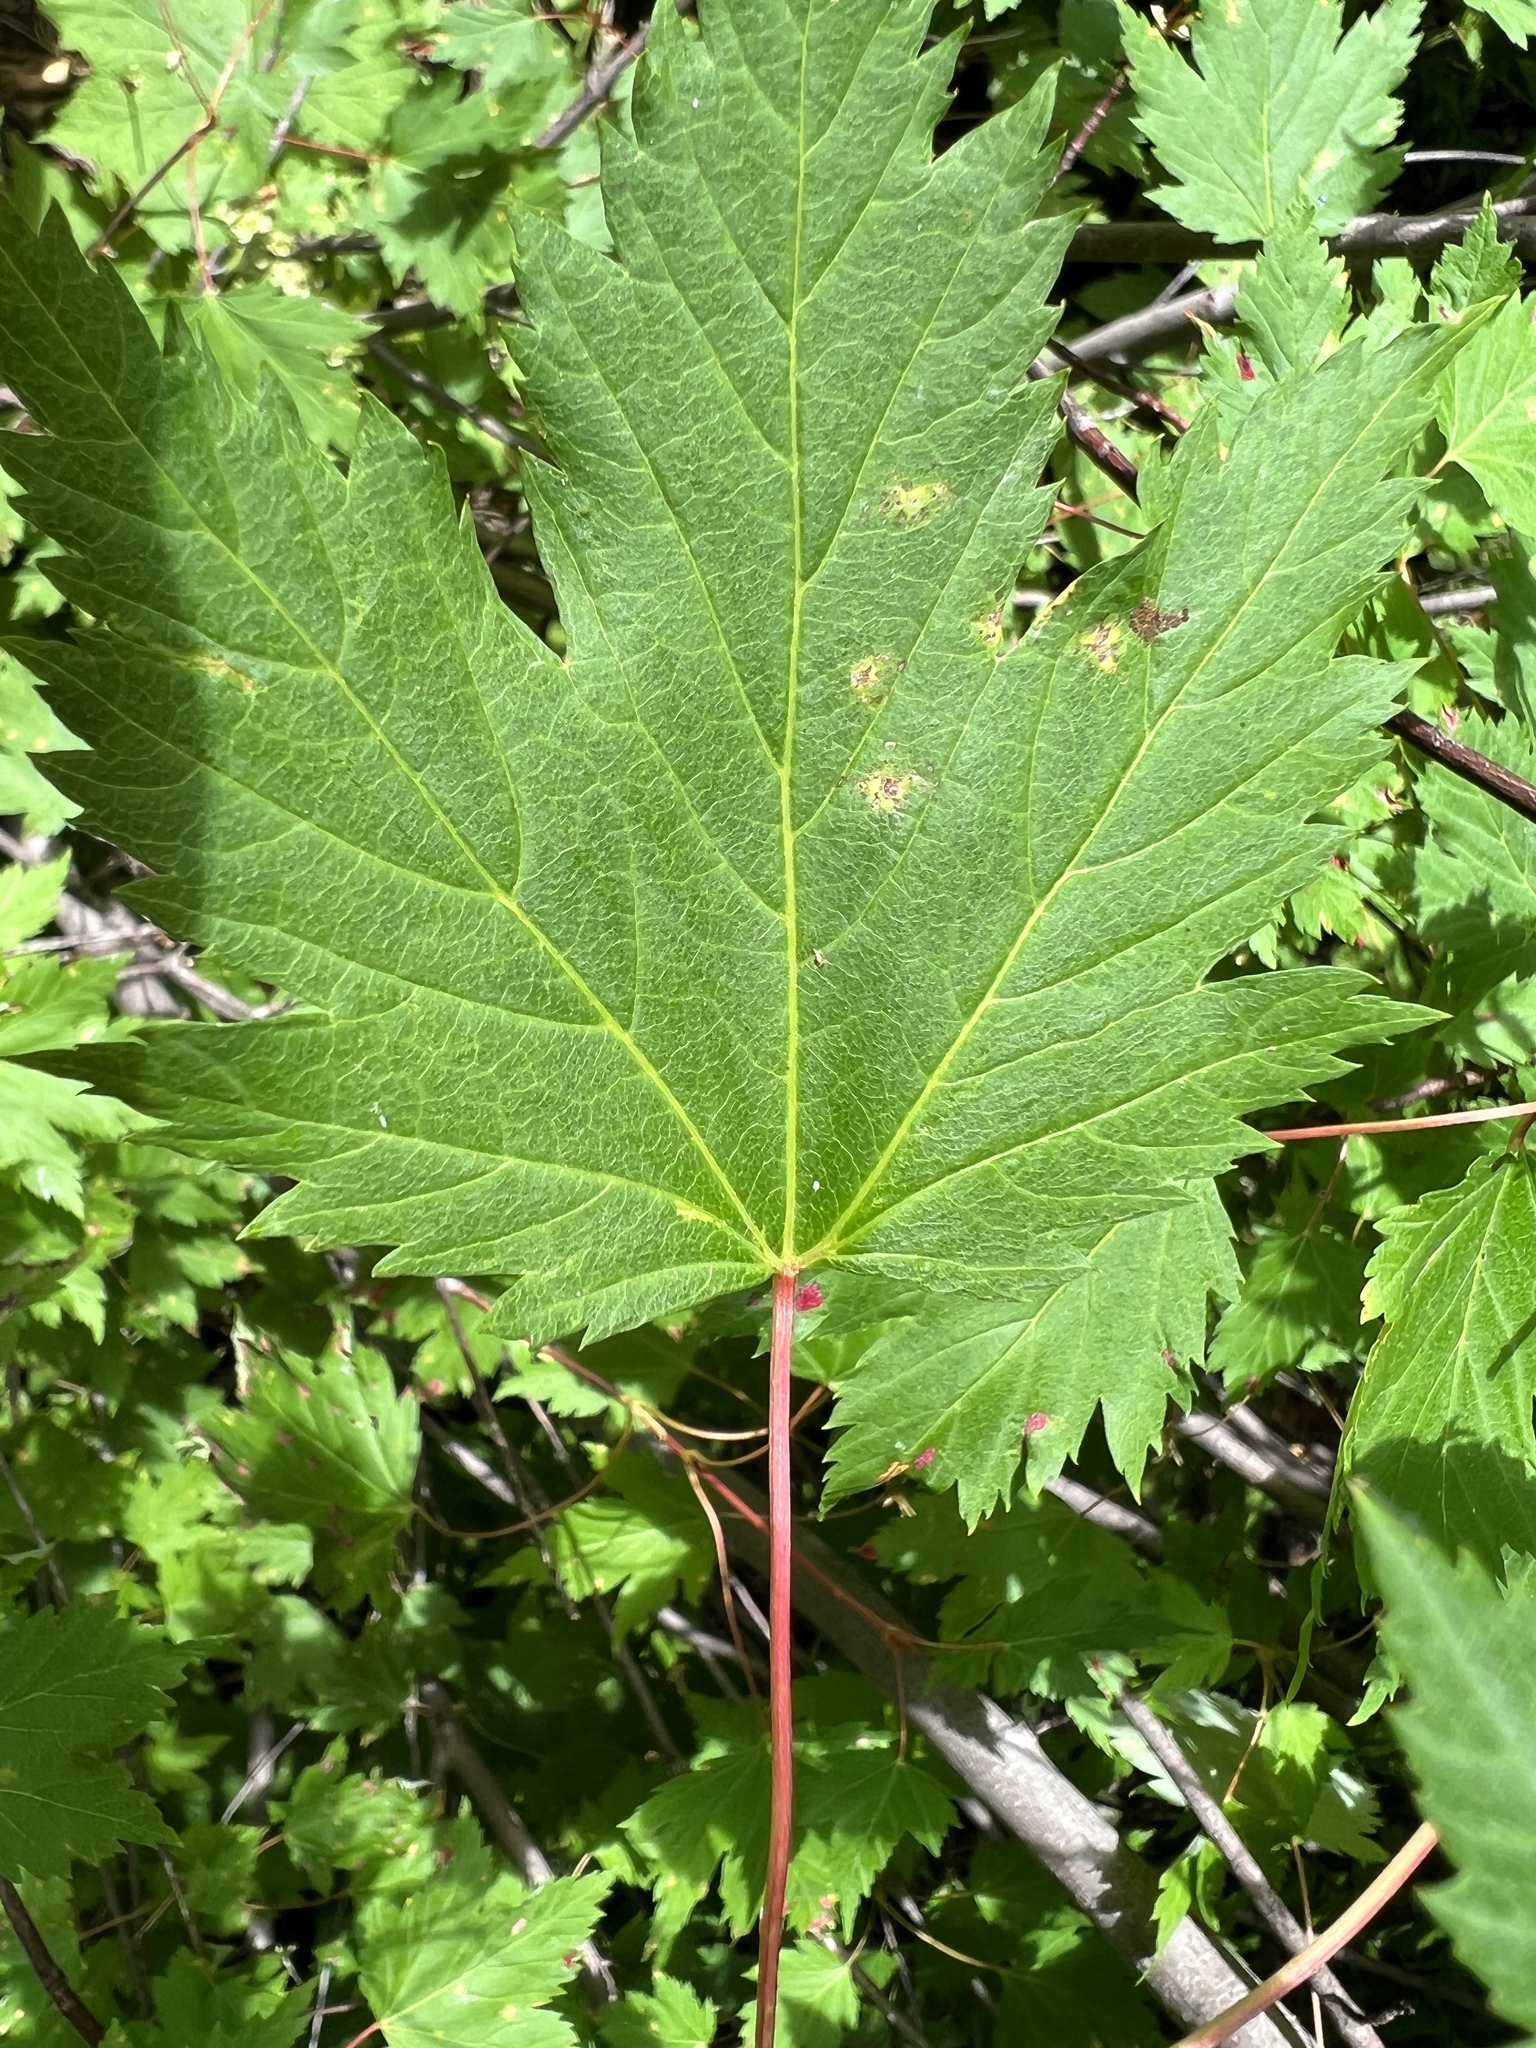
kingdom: Plantae
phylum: Tracheophyta
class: Magnoliopsida
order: Sapindales
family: Sapindaceae
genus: Acer
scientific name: Acer glabrum
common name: Rocky mountain maple
